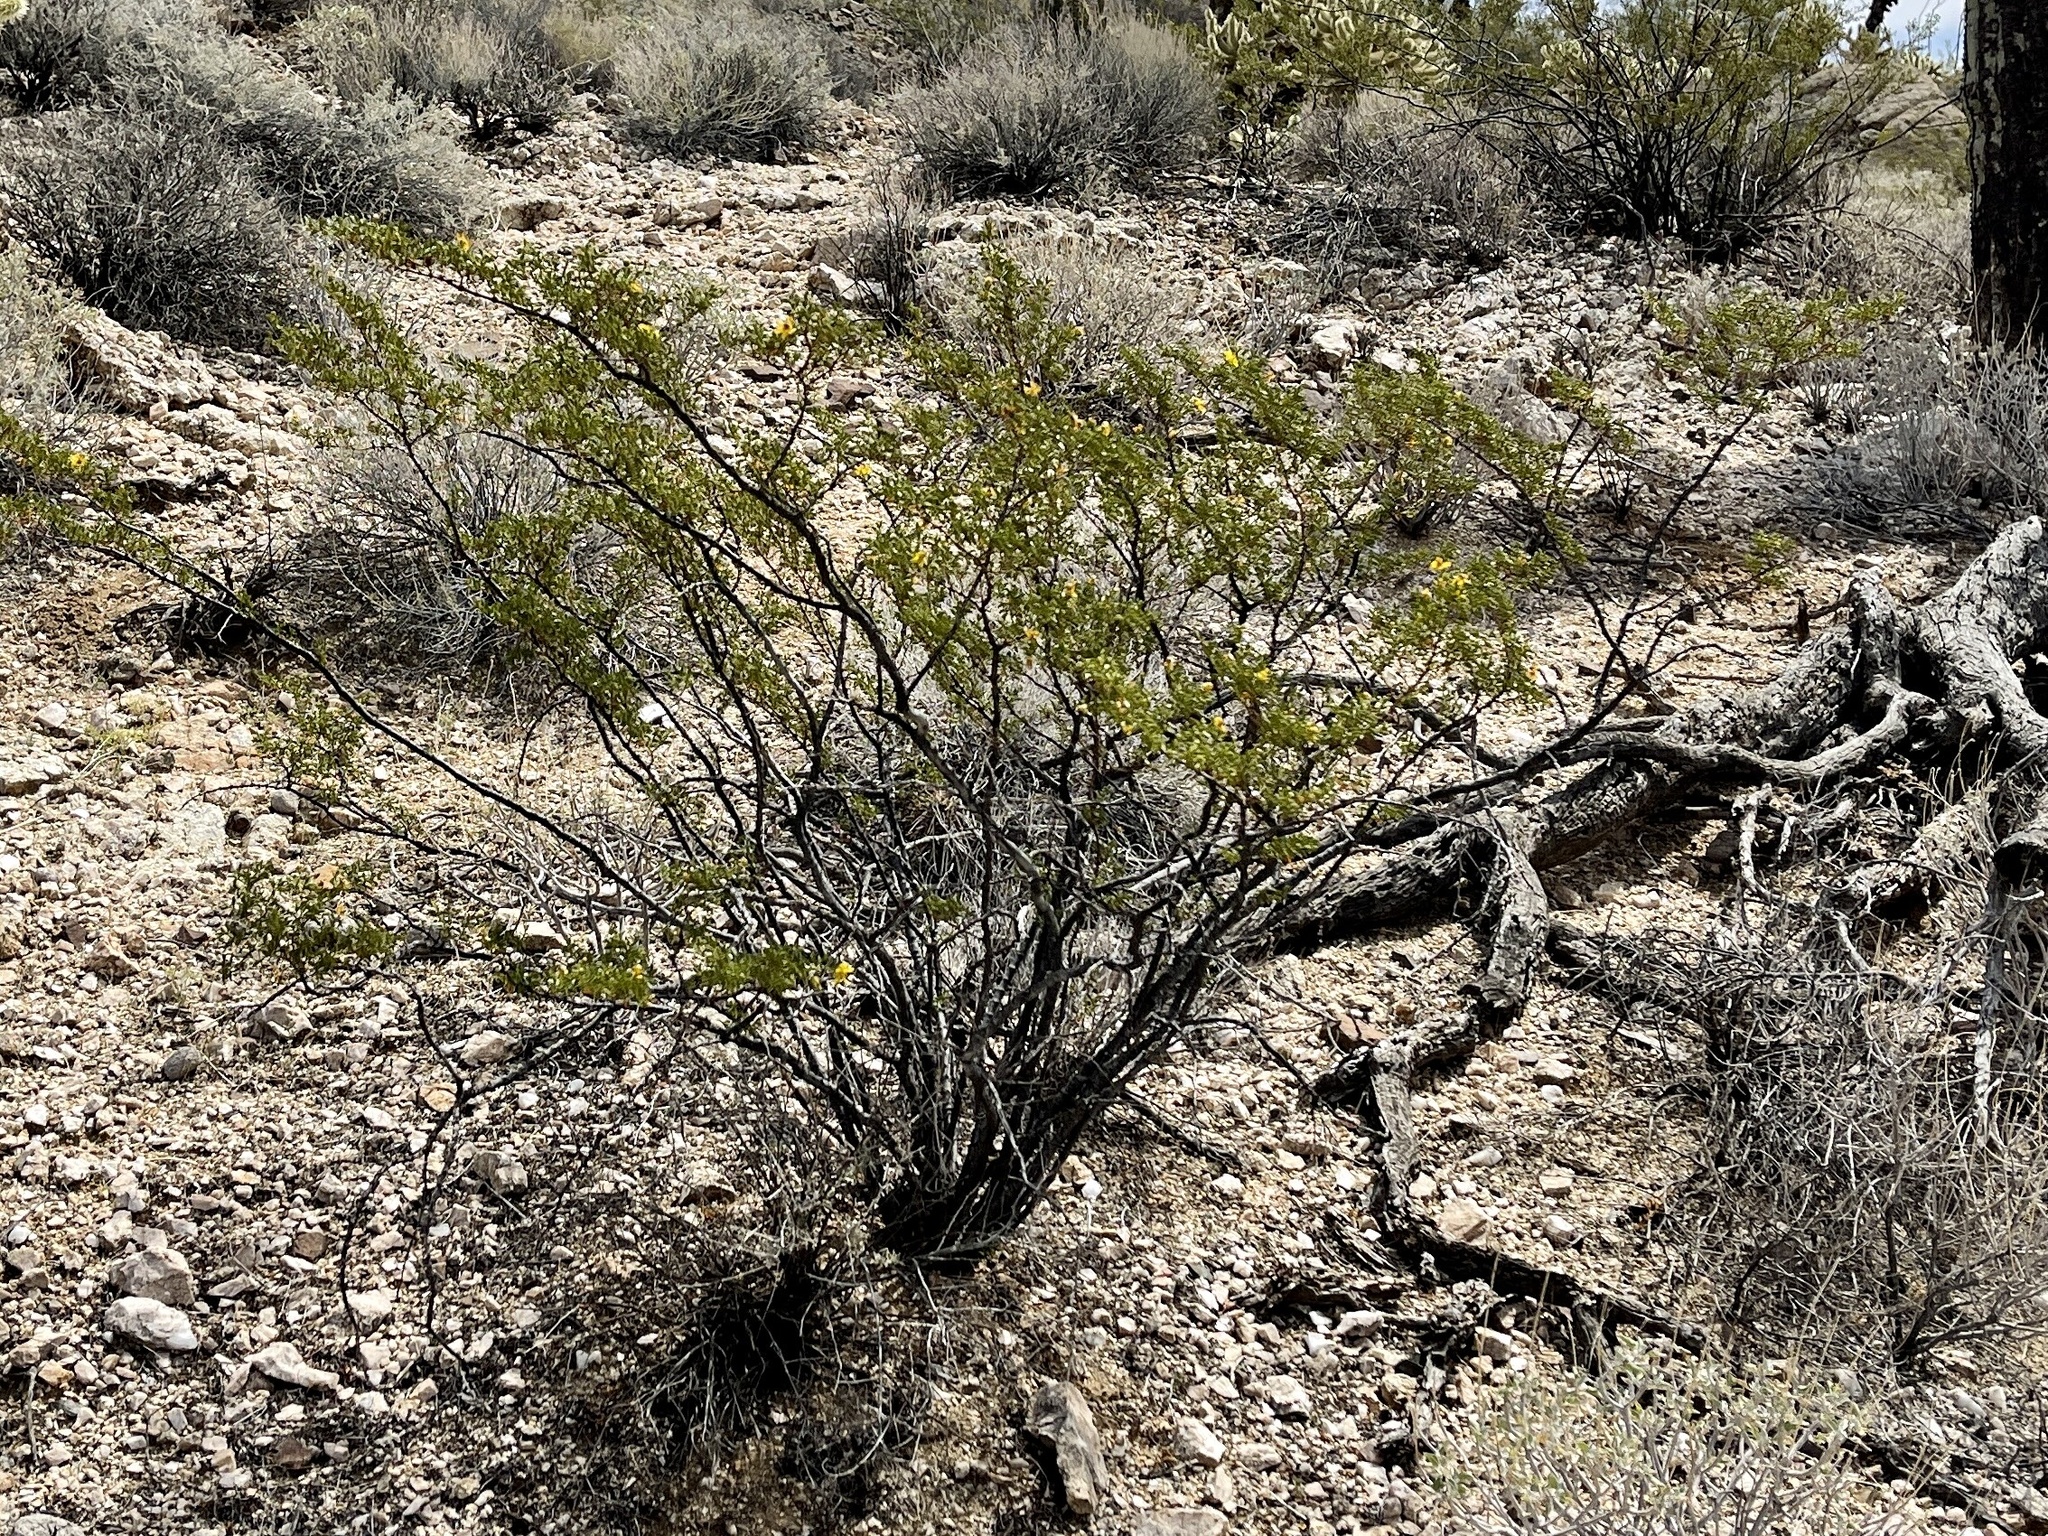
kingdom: Plantae
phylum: Tracheophyta
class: Magnoliopsida
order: Zygophyllales
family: Zygophyllaceae
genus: Larrea
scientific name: Larrea tridentata
